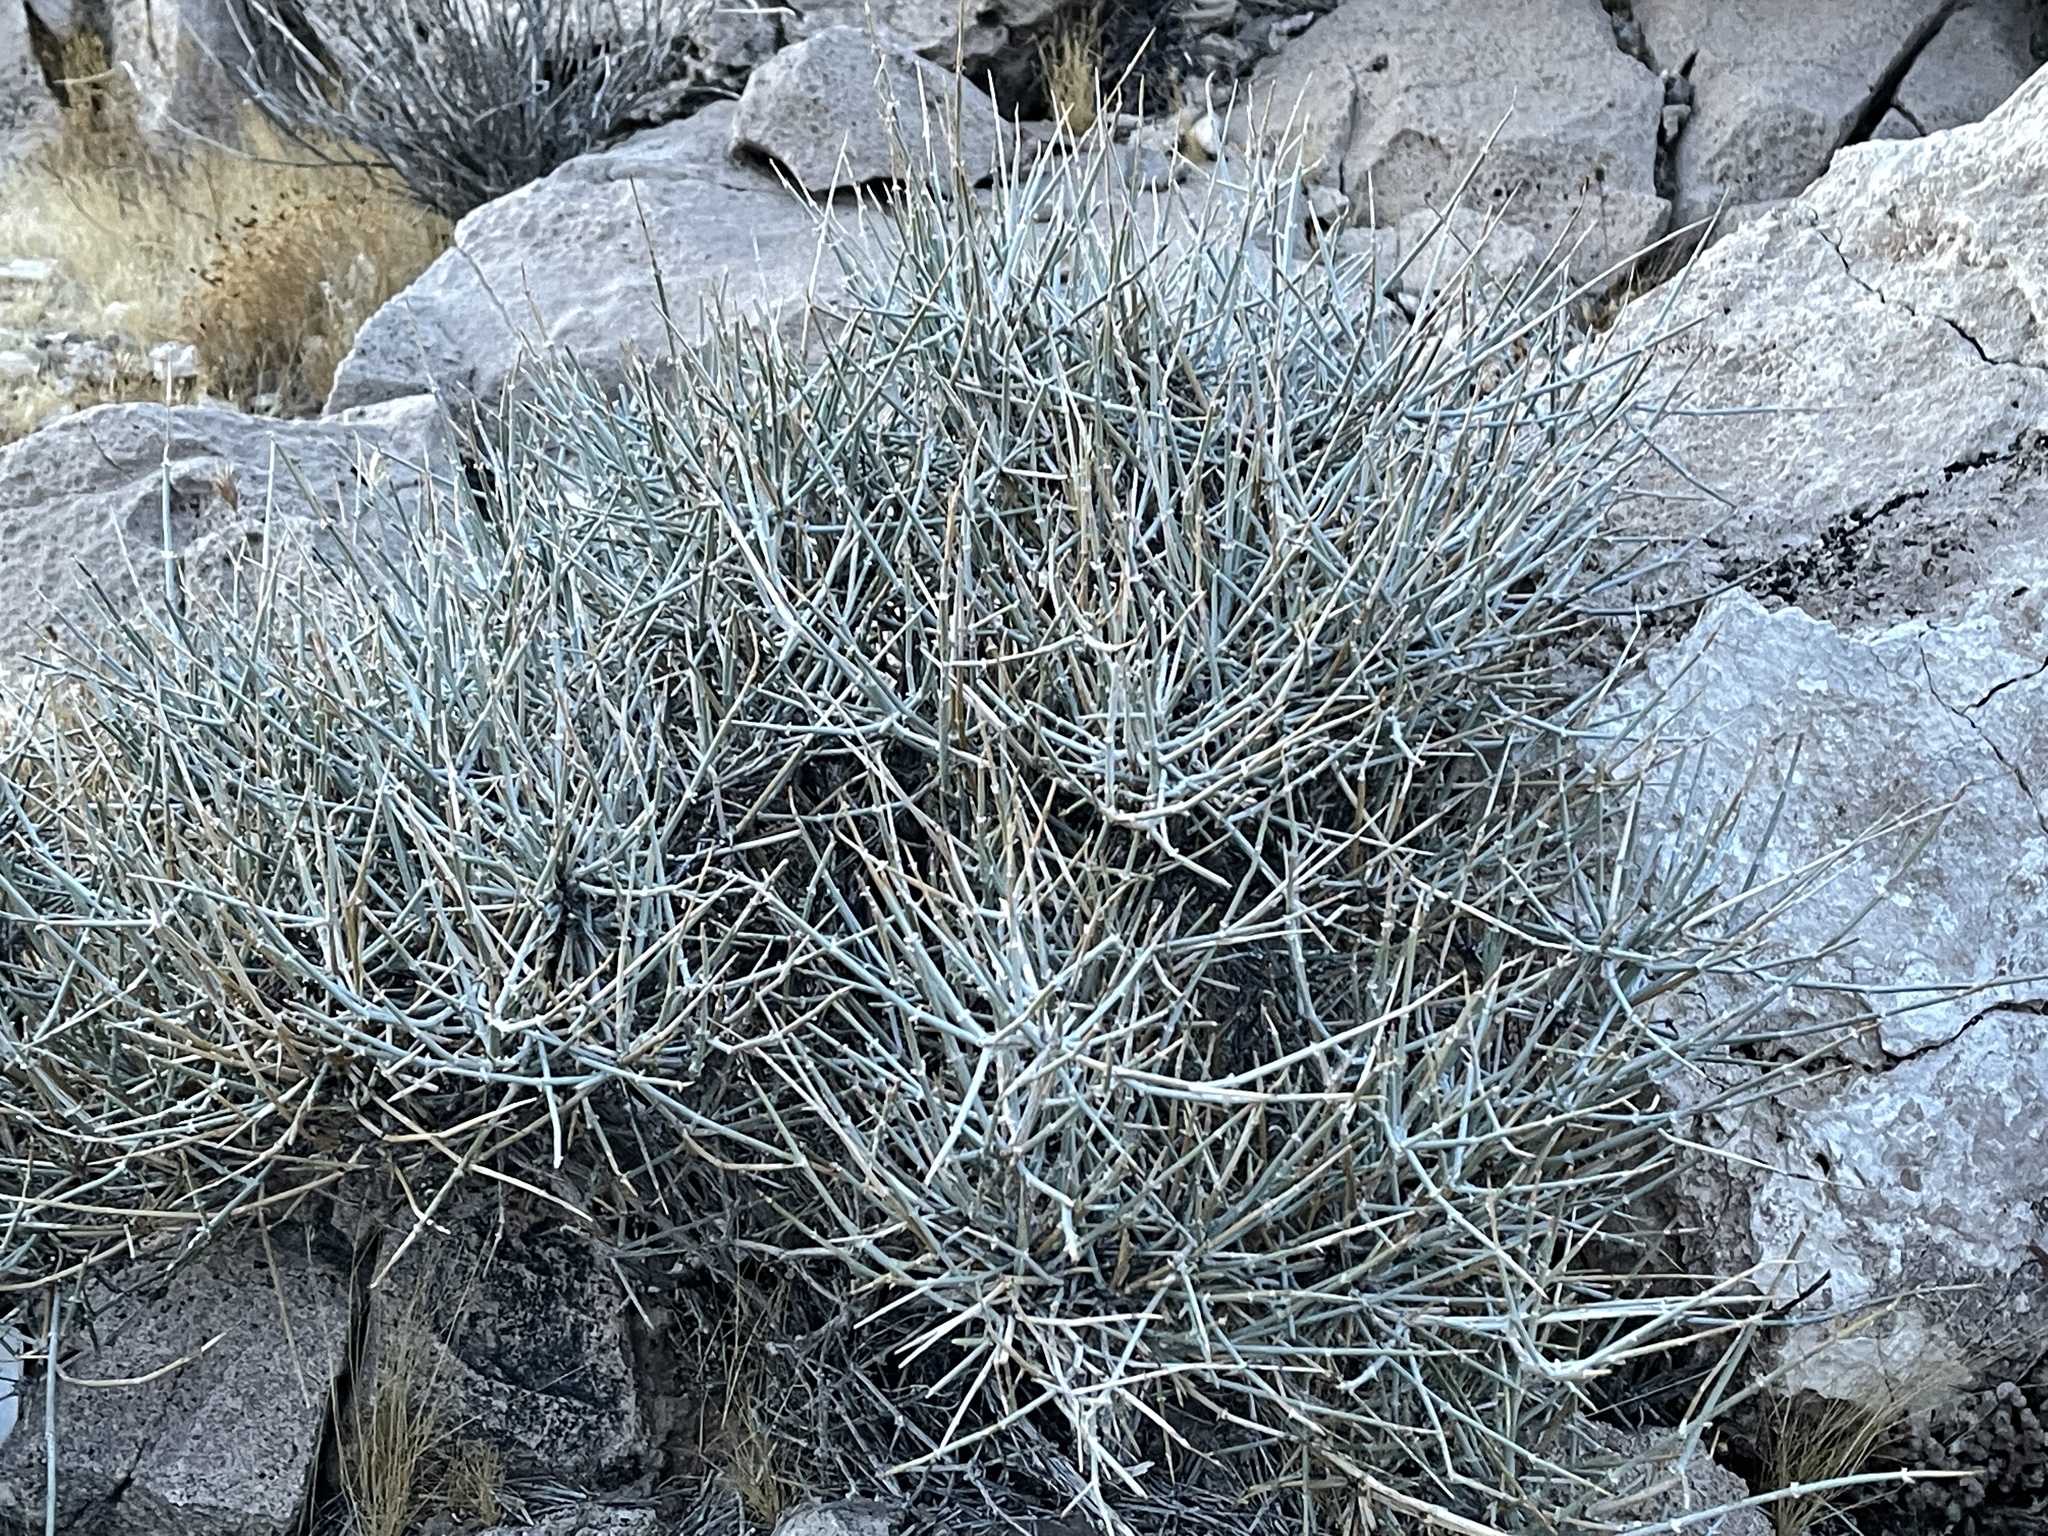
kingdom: Plantae
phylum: Tracheophyta
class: Gnetopsida
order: Ephedrales
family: Ephedraceae
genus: Ephedra
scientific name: Ephedra nevadensis
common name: Gray ephedra
